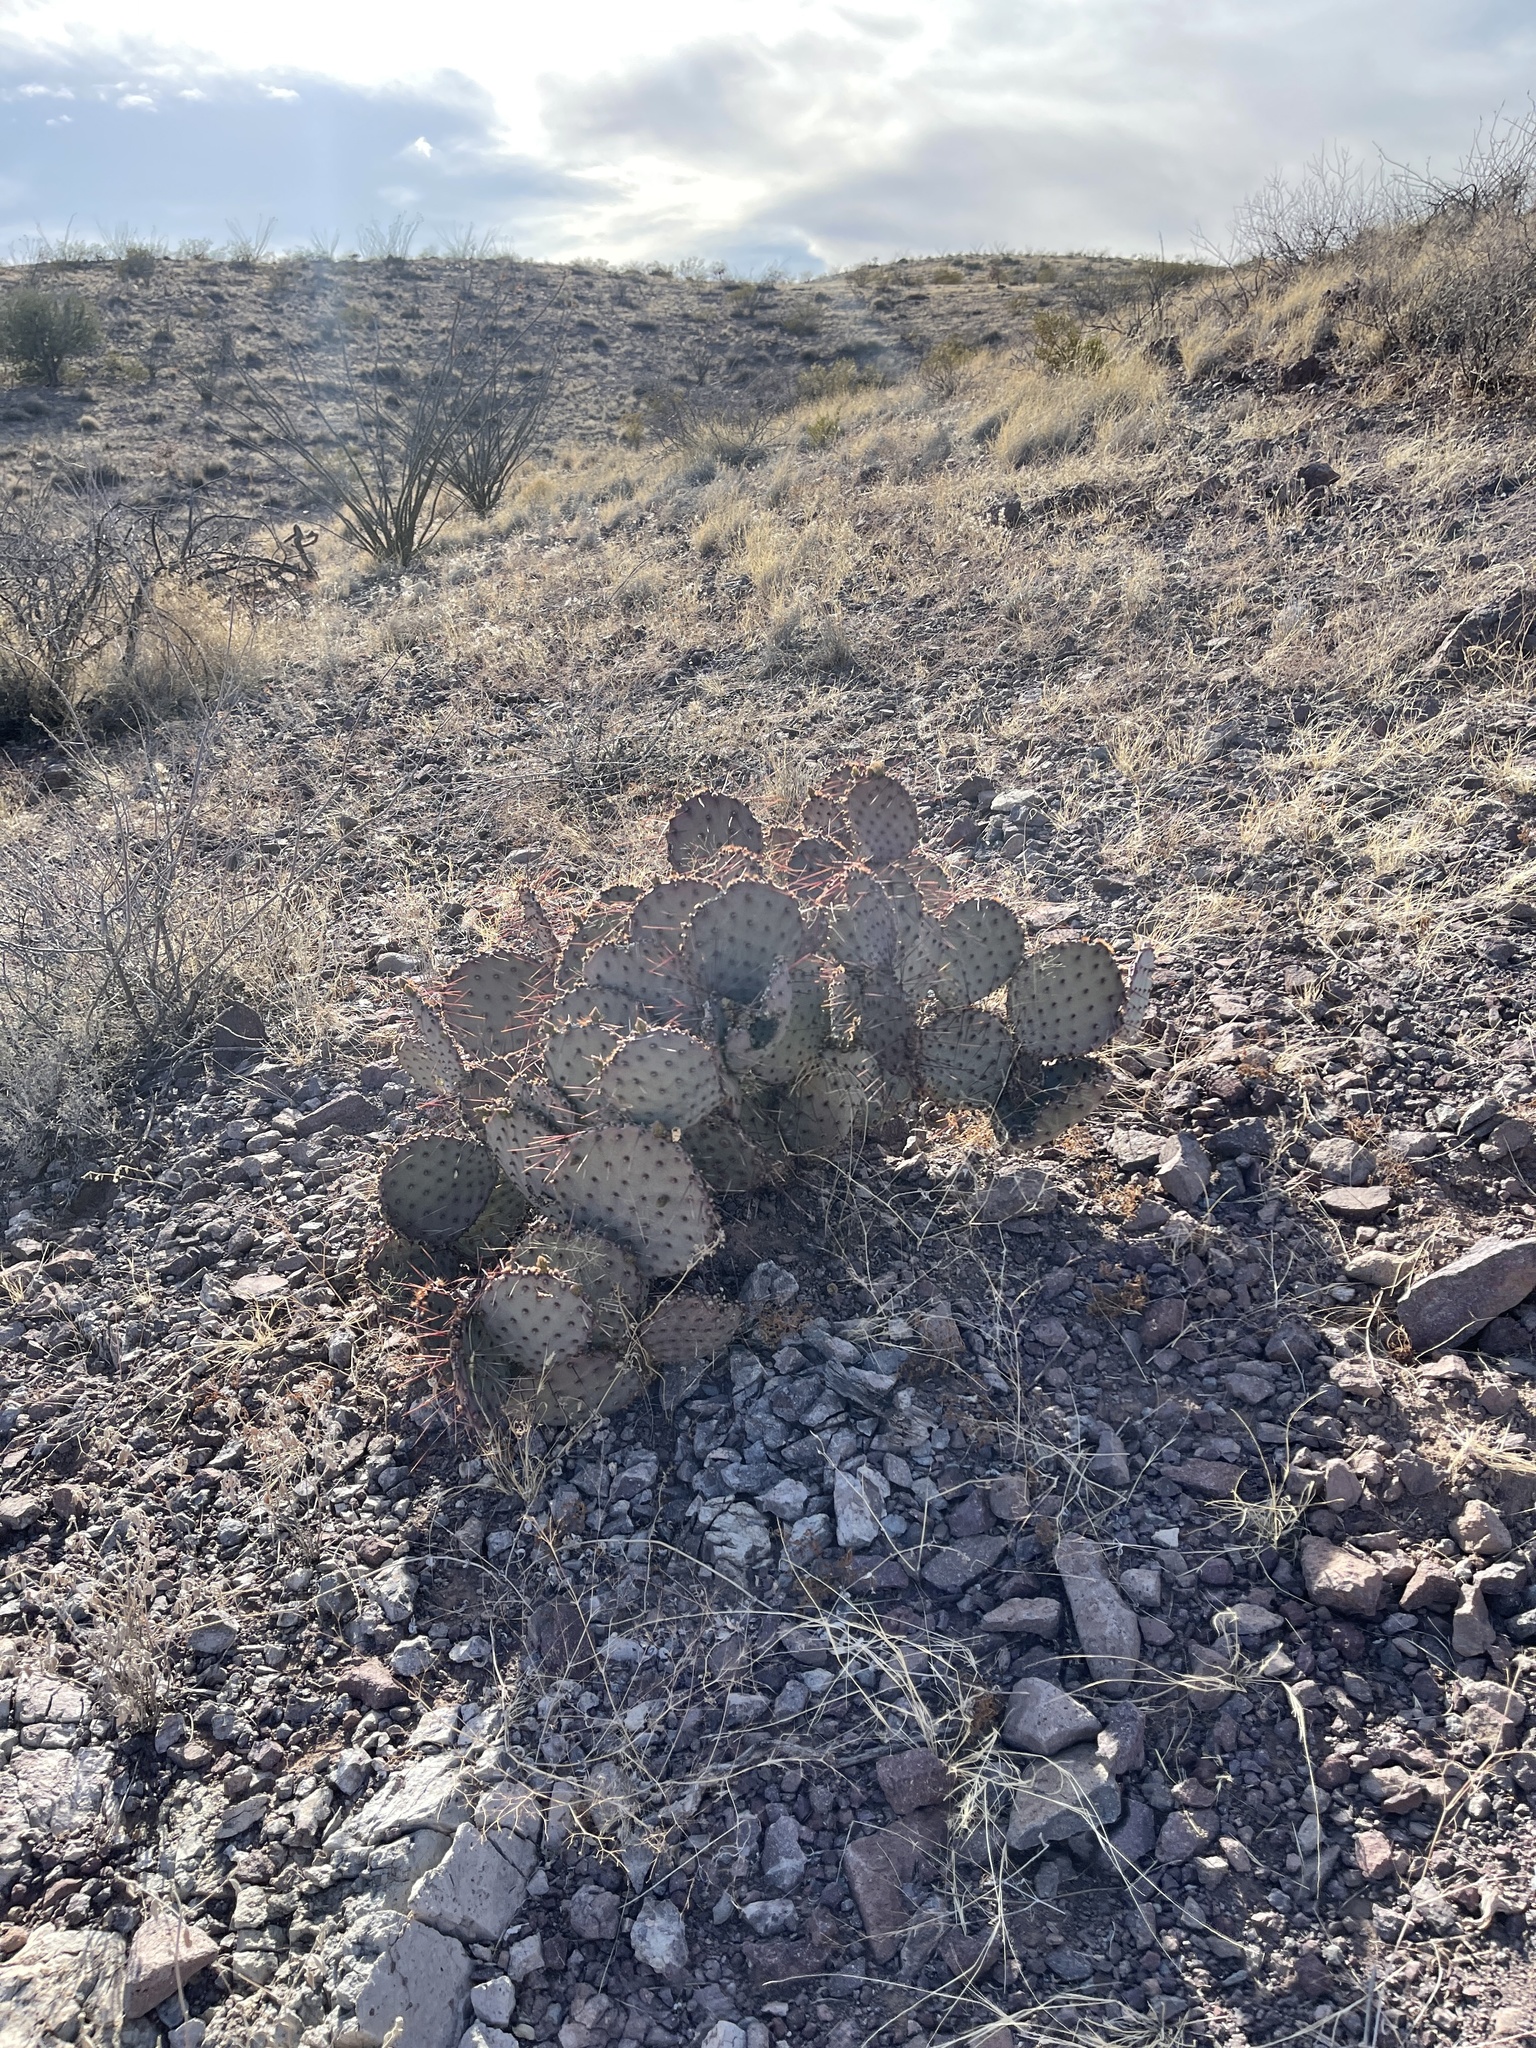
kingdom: Plantae
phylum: Tracheophyta
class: Magnoliopsida
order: Caryophyllales
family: Cactaceae
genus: Opuntia
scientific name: Opuntia macrocentra
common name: Purple prickly-pear
